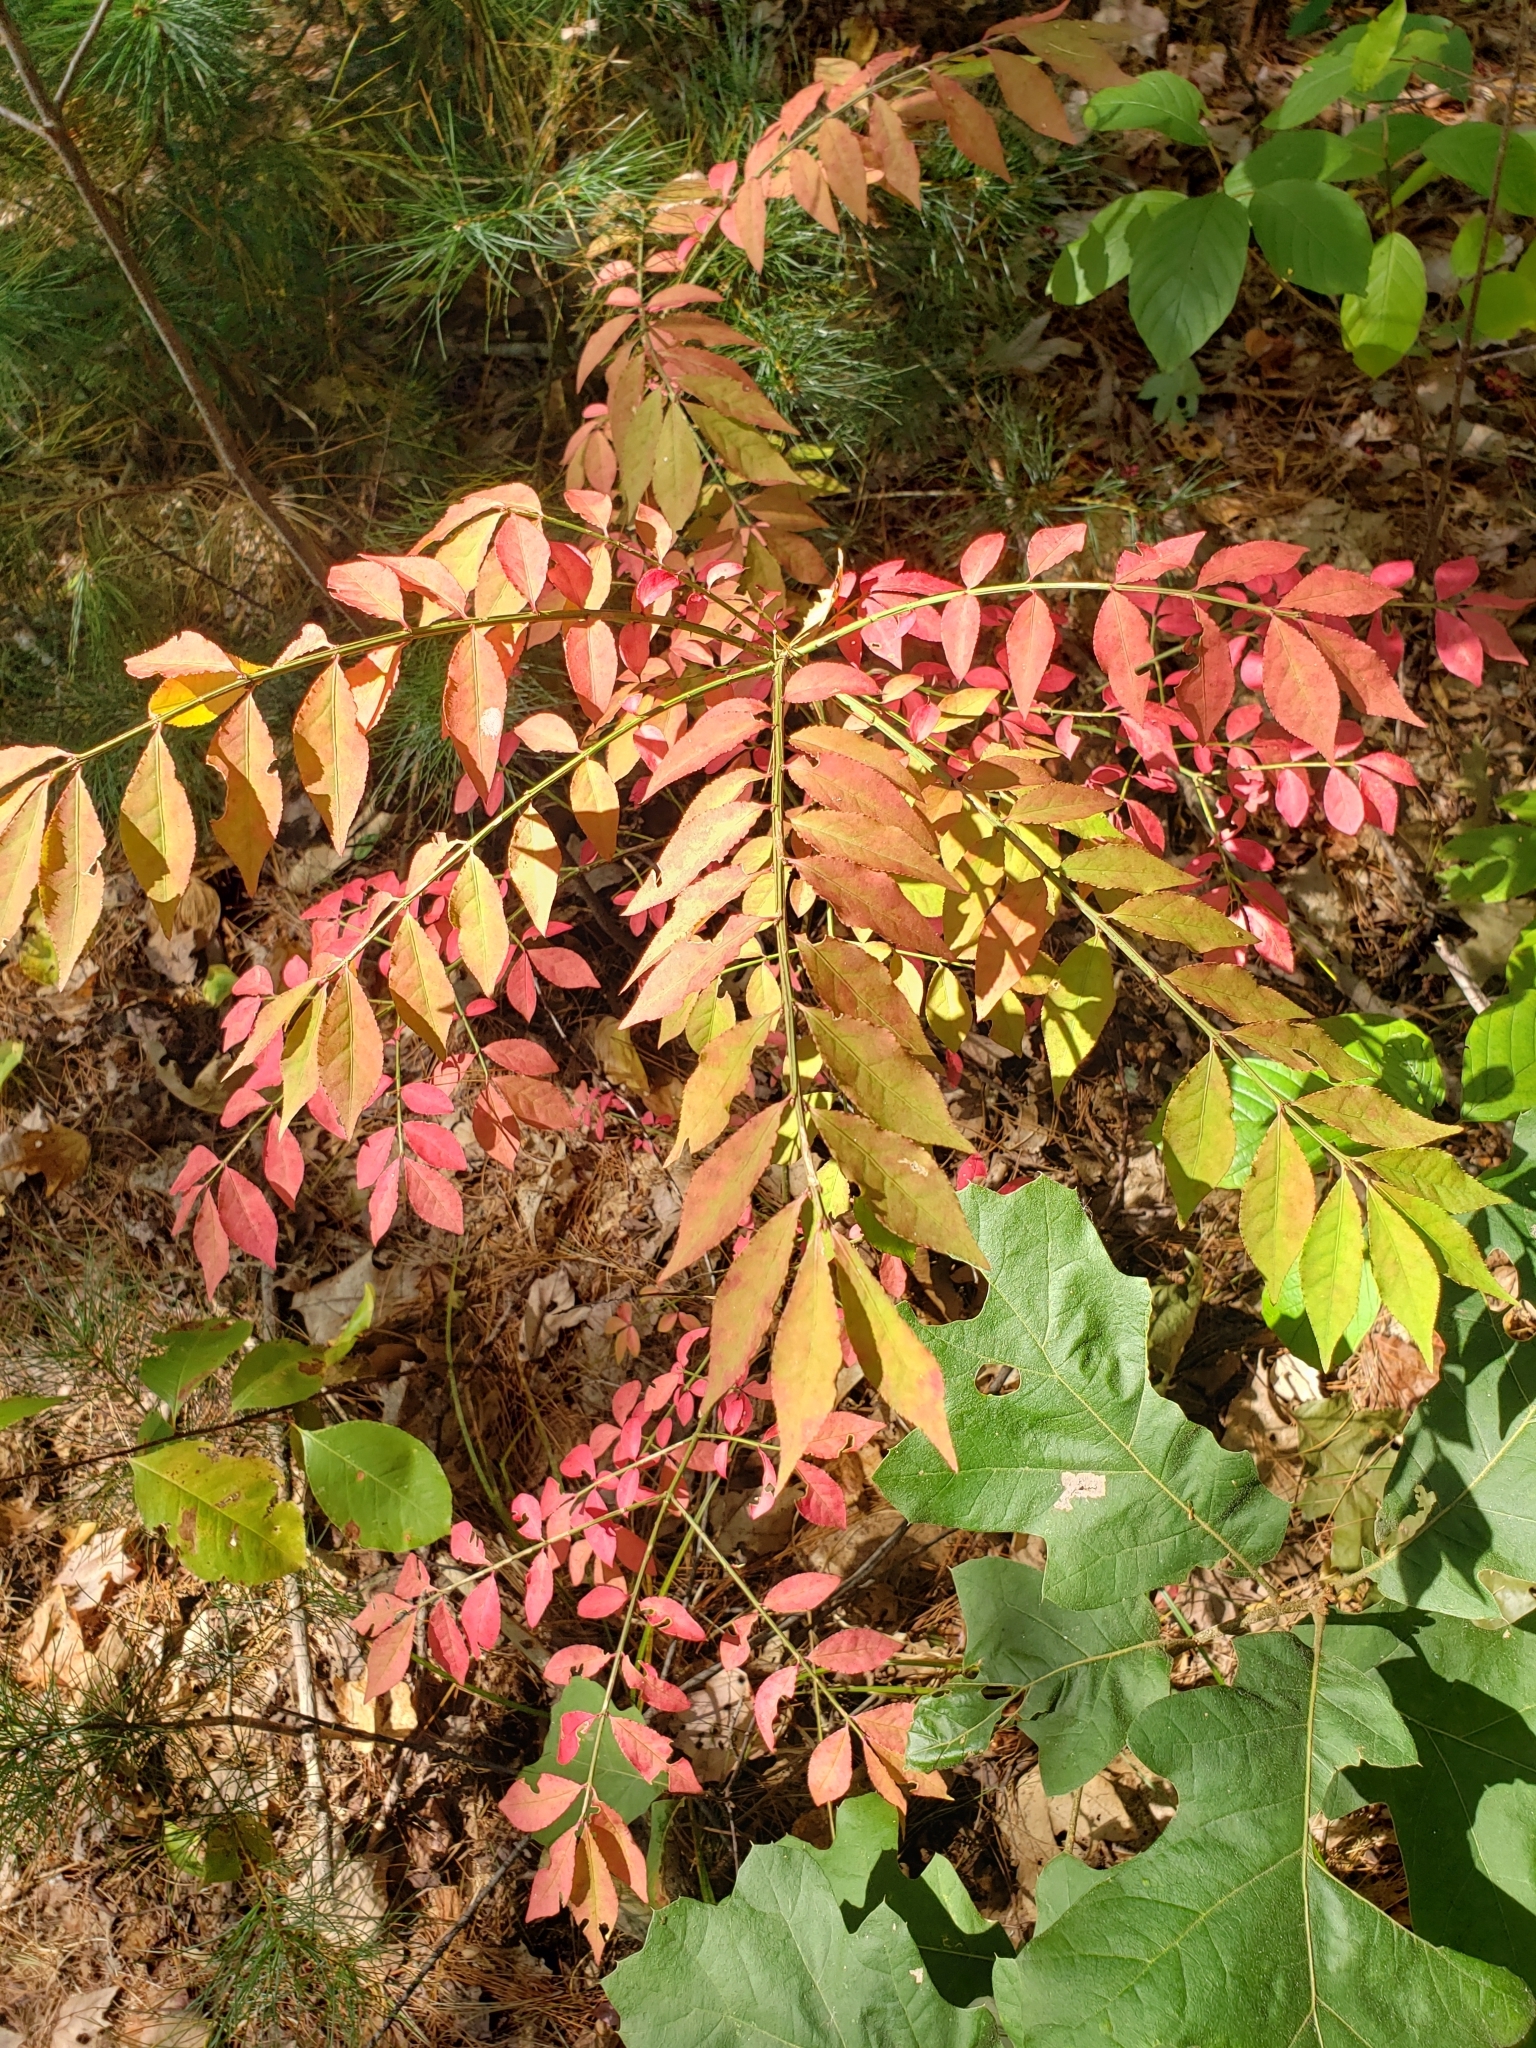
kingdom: Plantae
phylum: Tracheophyta
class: Magnoliopsida
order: Celastrales
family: Celastraceae
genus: Euonymus
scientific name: Euonymus alatus
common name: Winged euonymus
